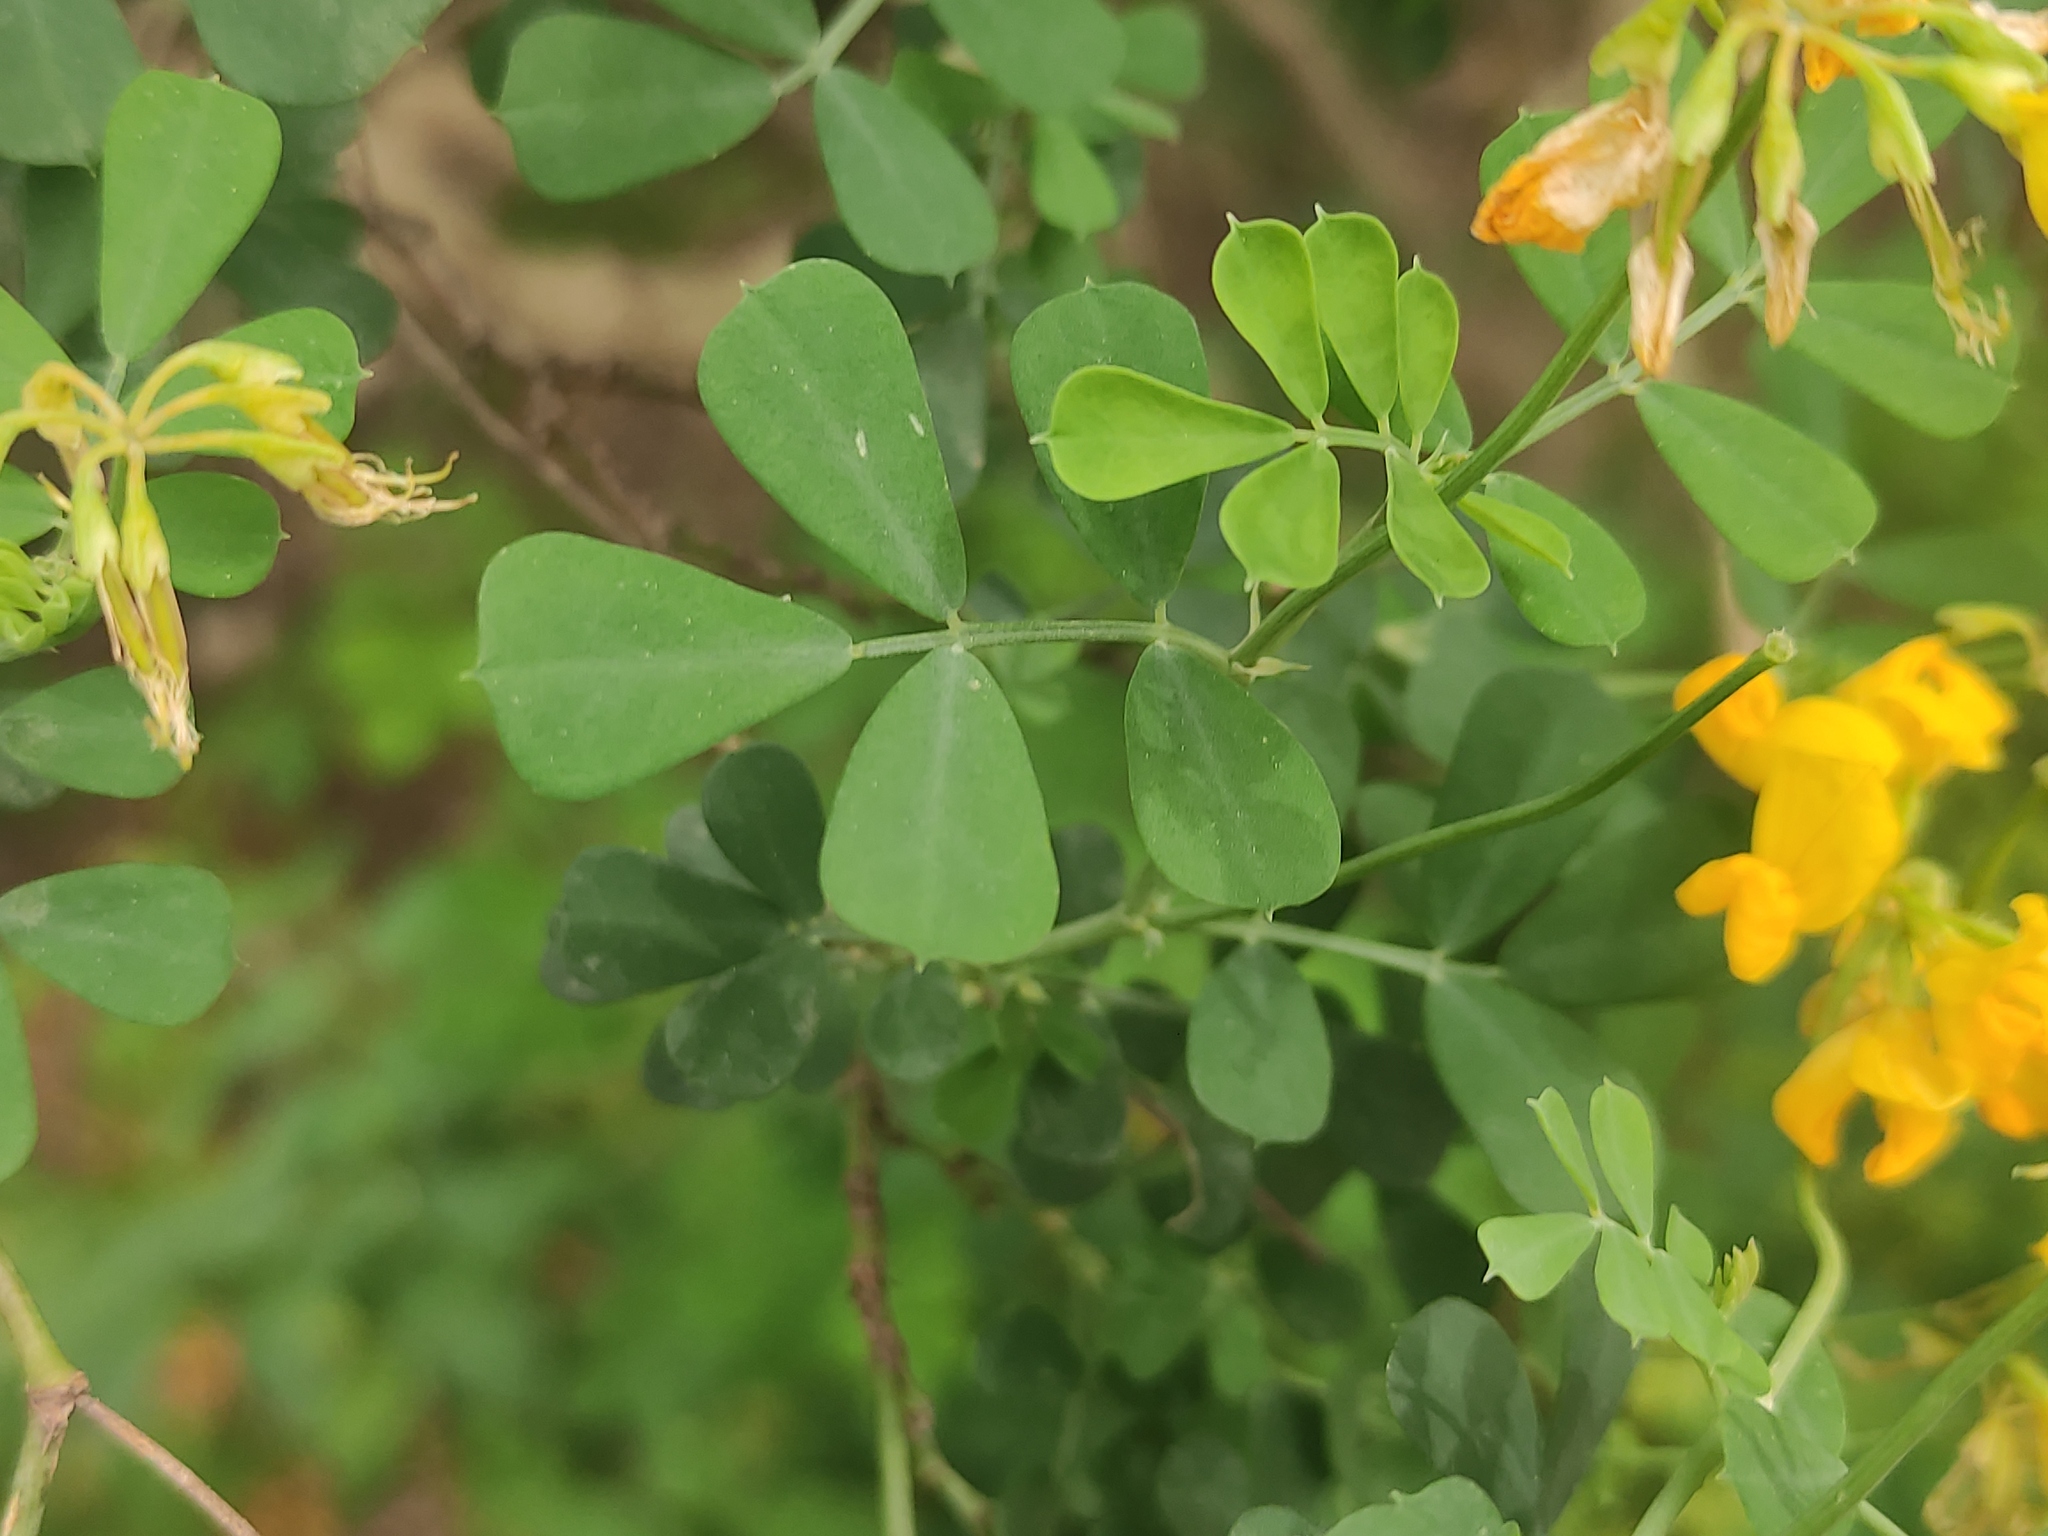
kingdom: Plantae
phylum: Tracheophyta
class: Magnoliopsida
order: Fabales
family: Fabaceae
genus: Coronilla
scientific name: Coronilla valentina
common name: Shrubby scorpion-vetch
